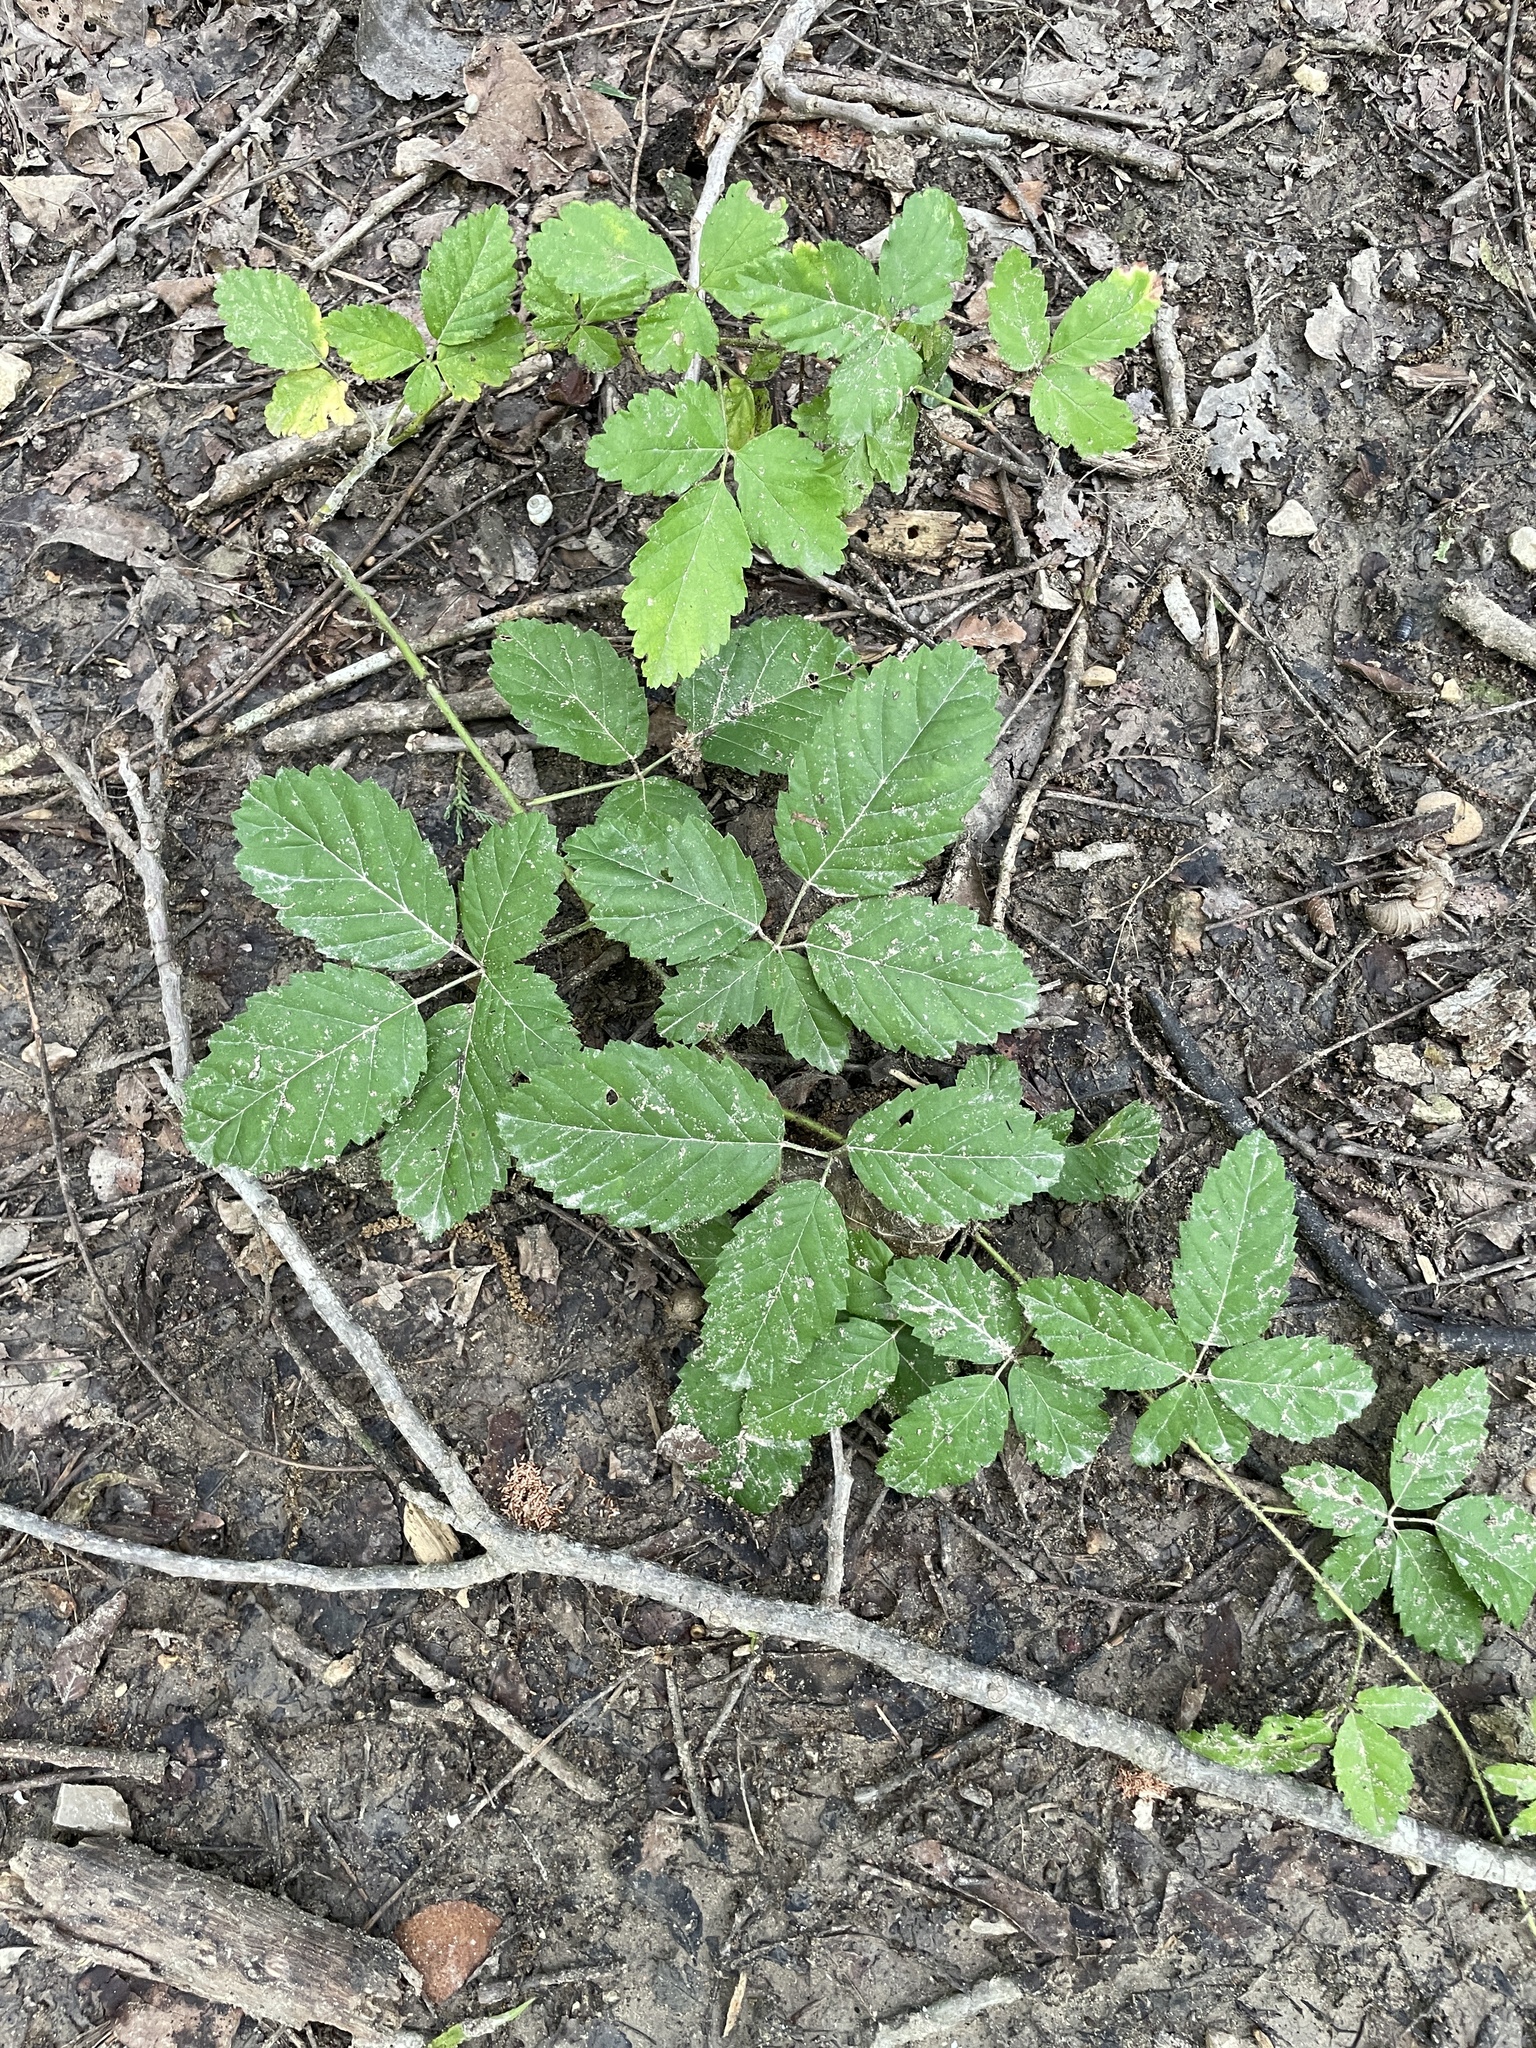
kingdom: Plantae
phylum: Tracheophyta
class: Magnoliopsida
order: Rosales
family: Rosaceae
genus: Rubus
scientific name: Rubus trivialis
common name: Southern dewberry
